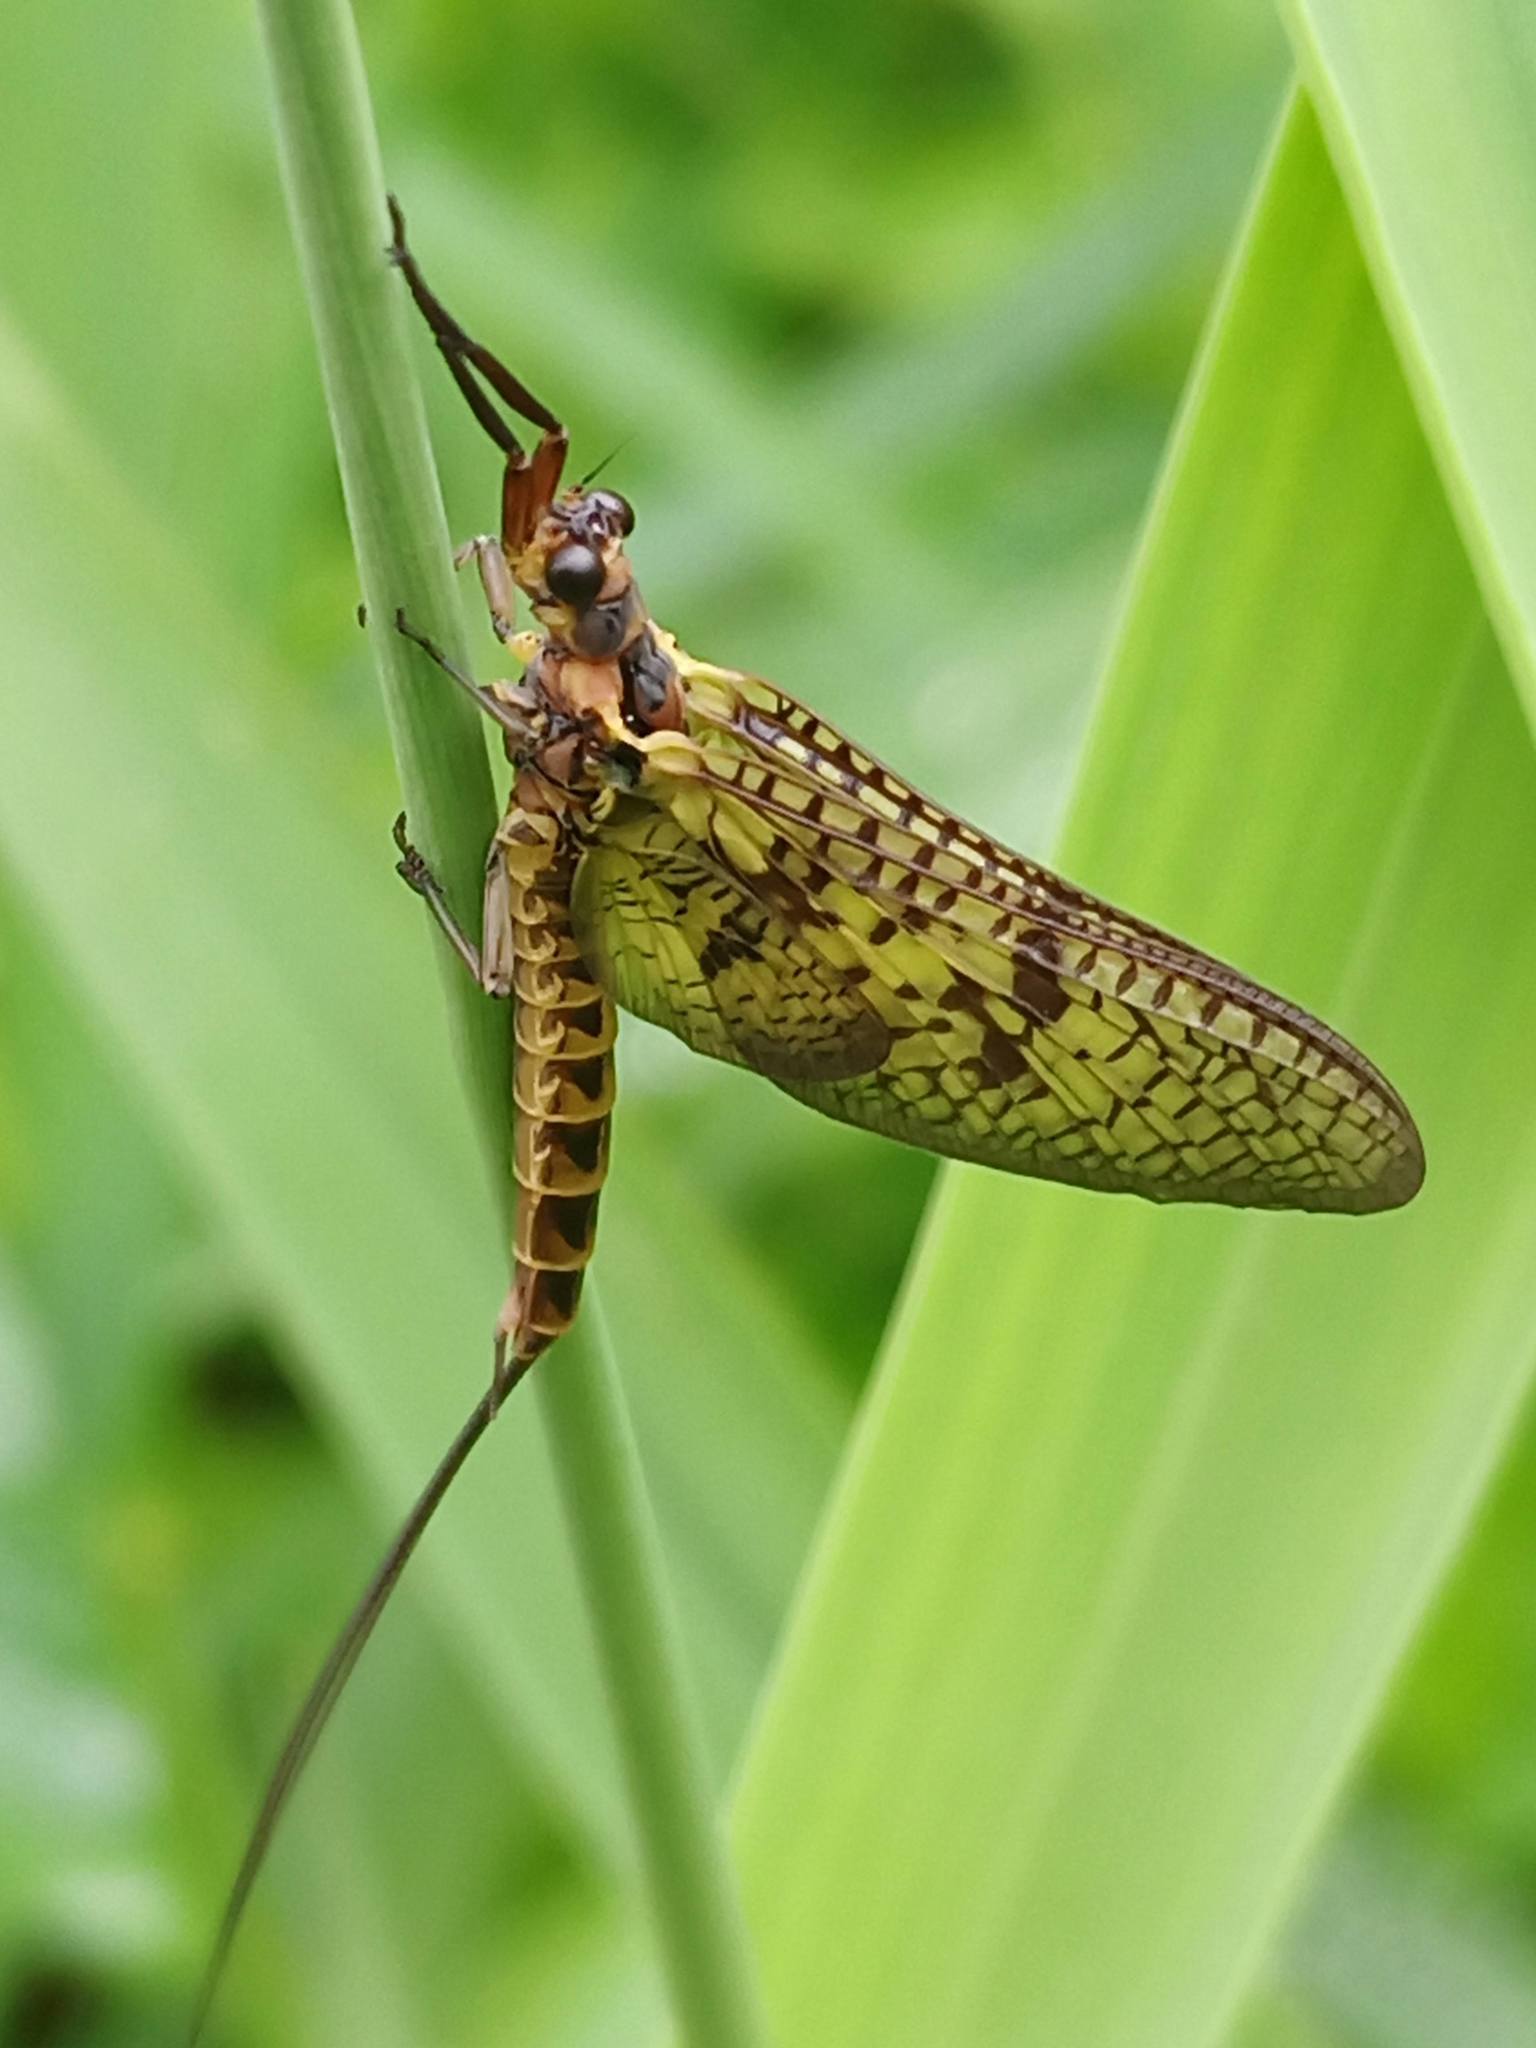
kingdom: Animalia
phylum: Arthropoda
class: Insecta
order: Ephemeroptera
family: Ephemeridae
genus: Ephemera
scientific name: Ephemera vulgata
